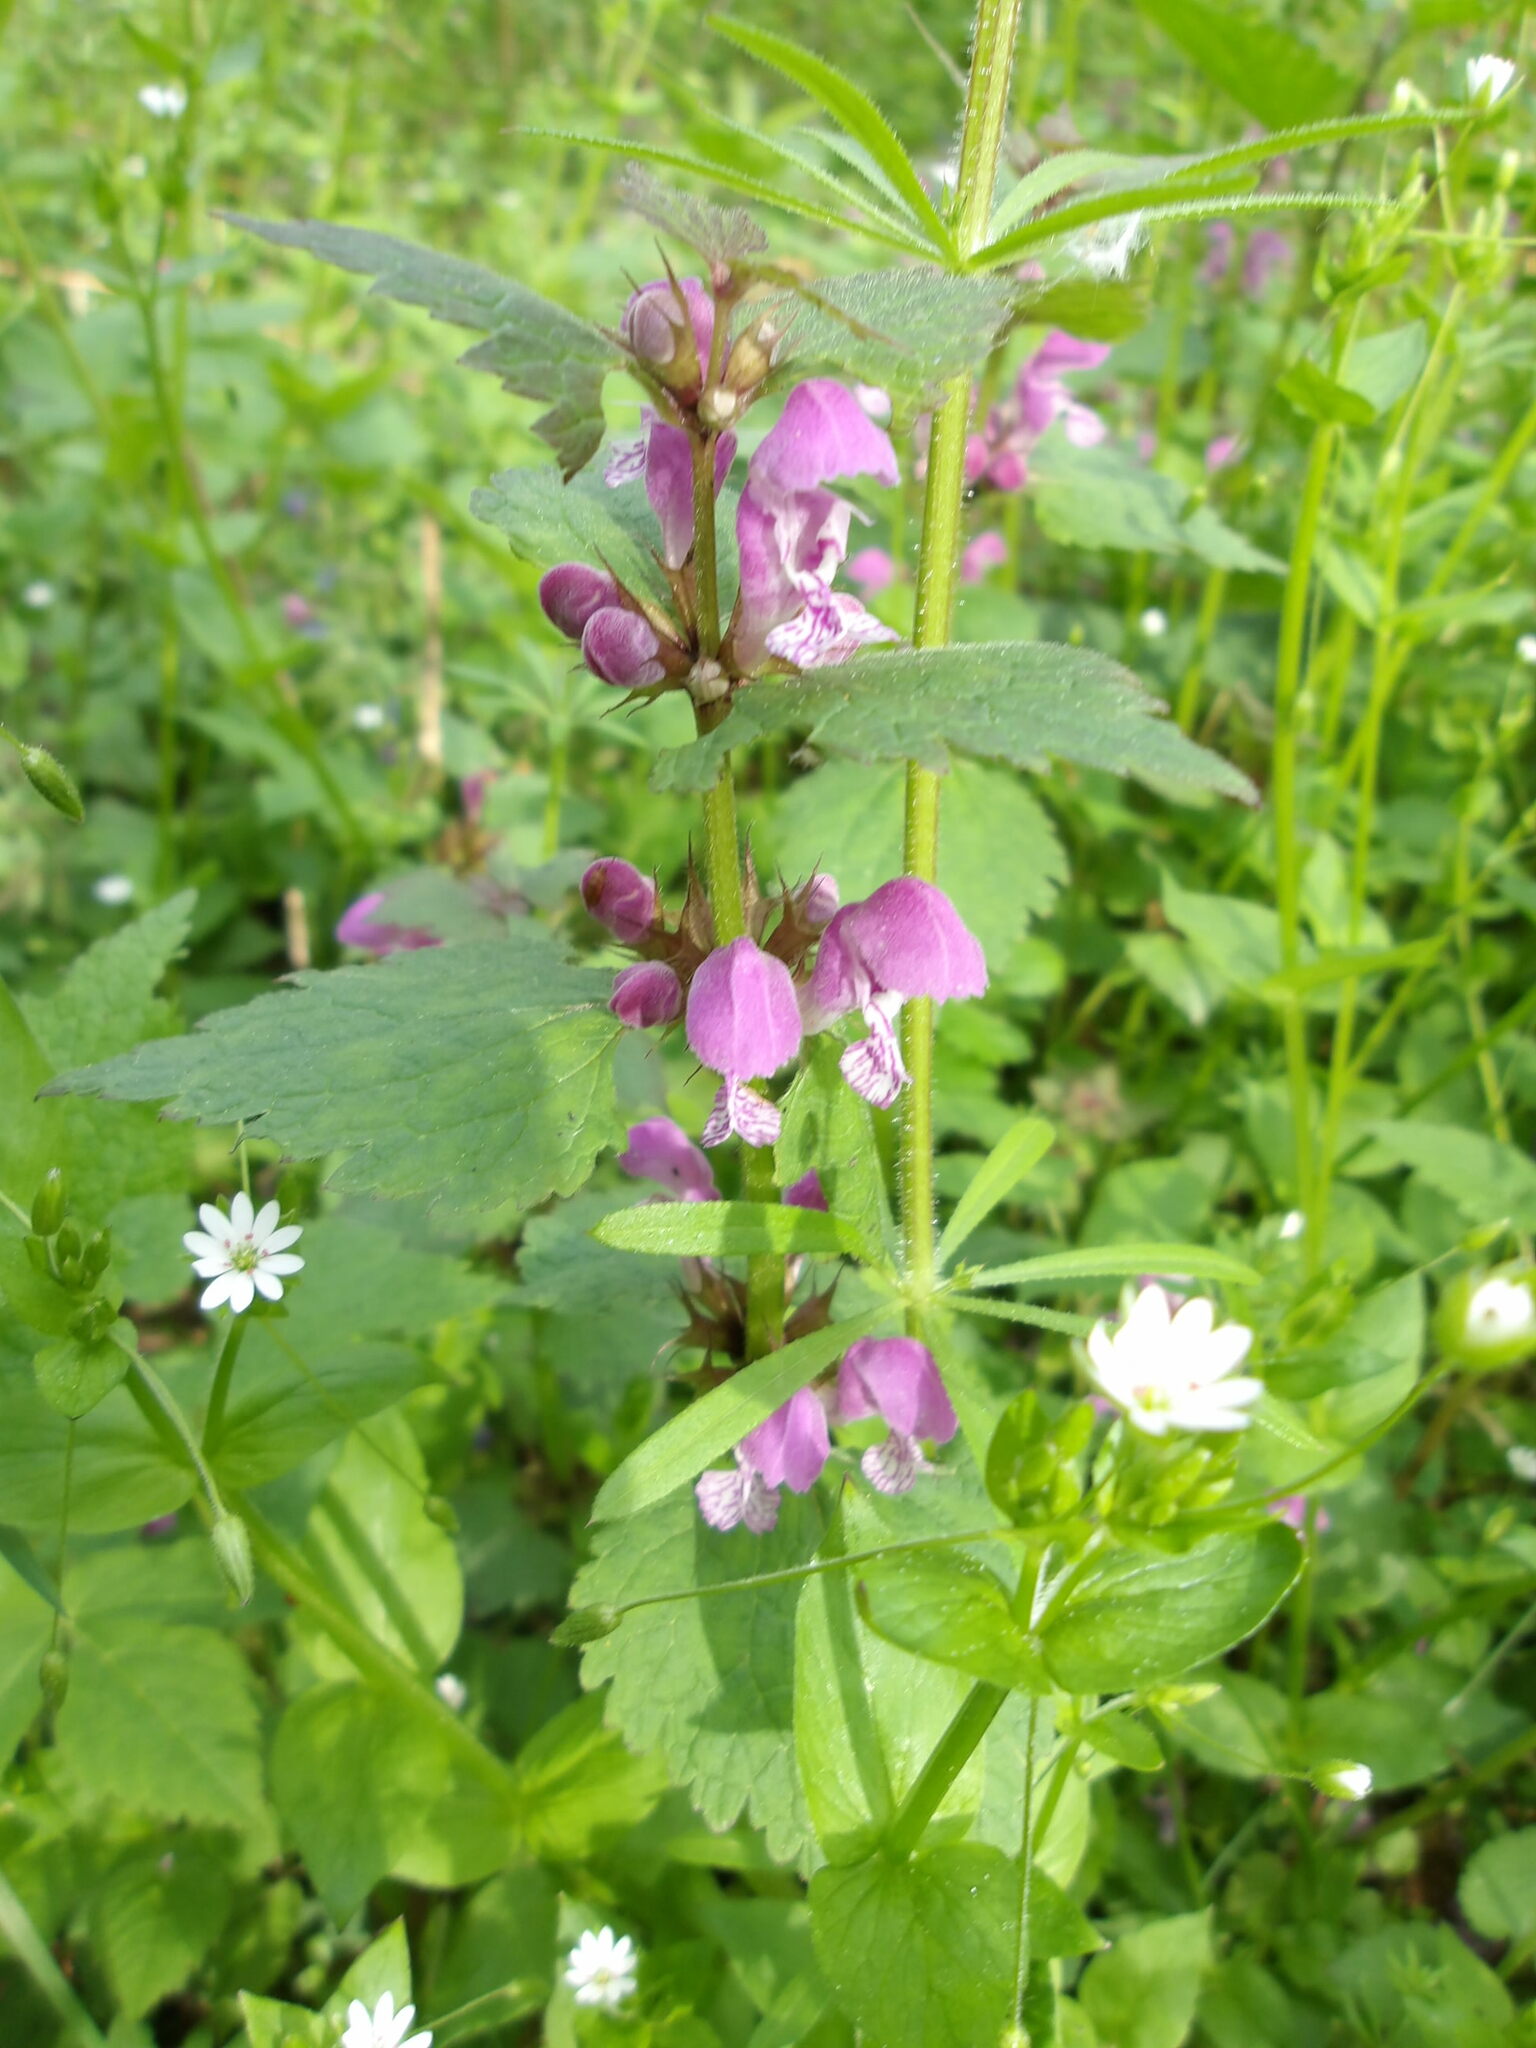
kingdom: Plantae
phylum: Tracheophyta
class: Magnoliopsida
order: Lamiales
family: Lamiaceae
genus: Lamium
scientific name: Lamium maculatum
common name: Spotted dead-nettle
